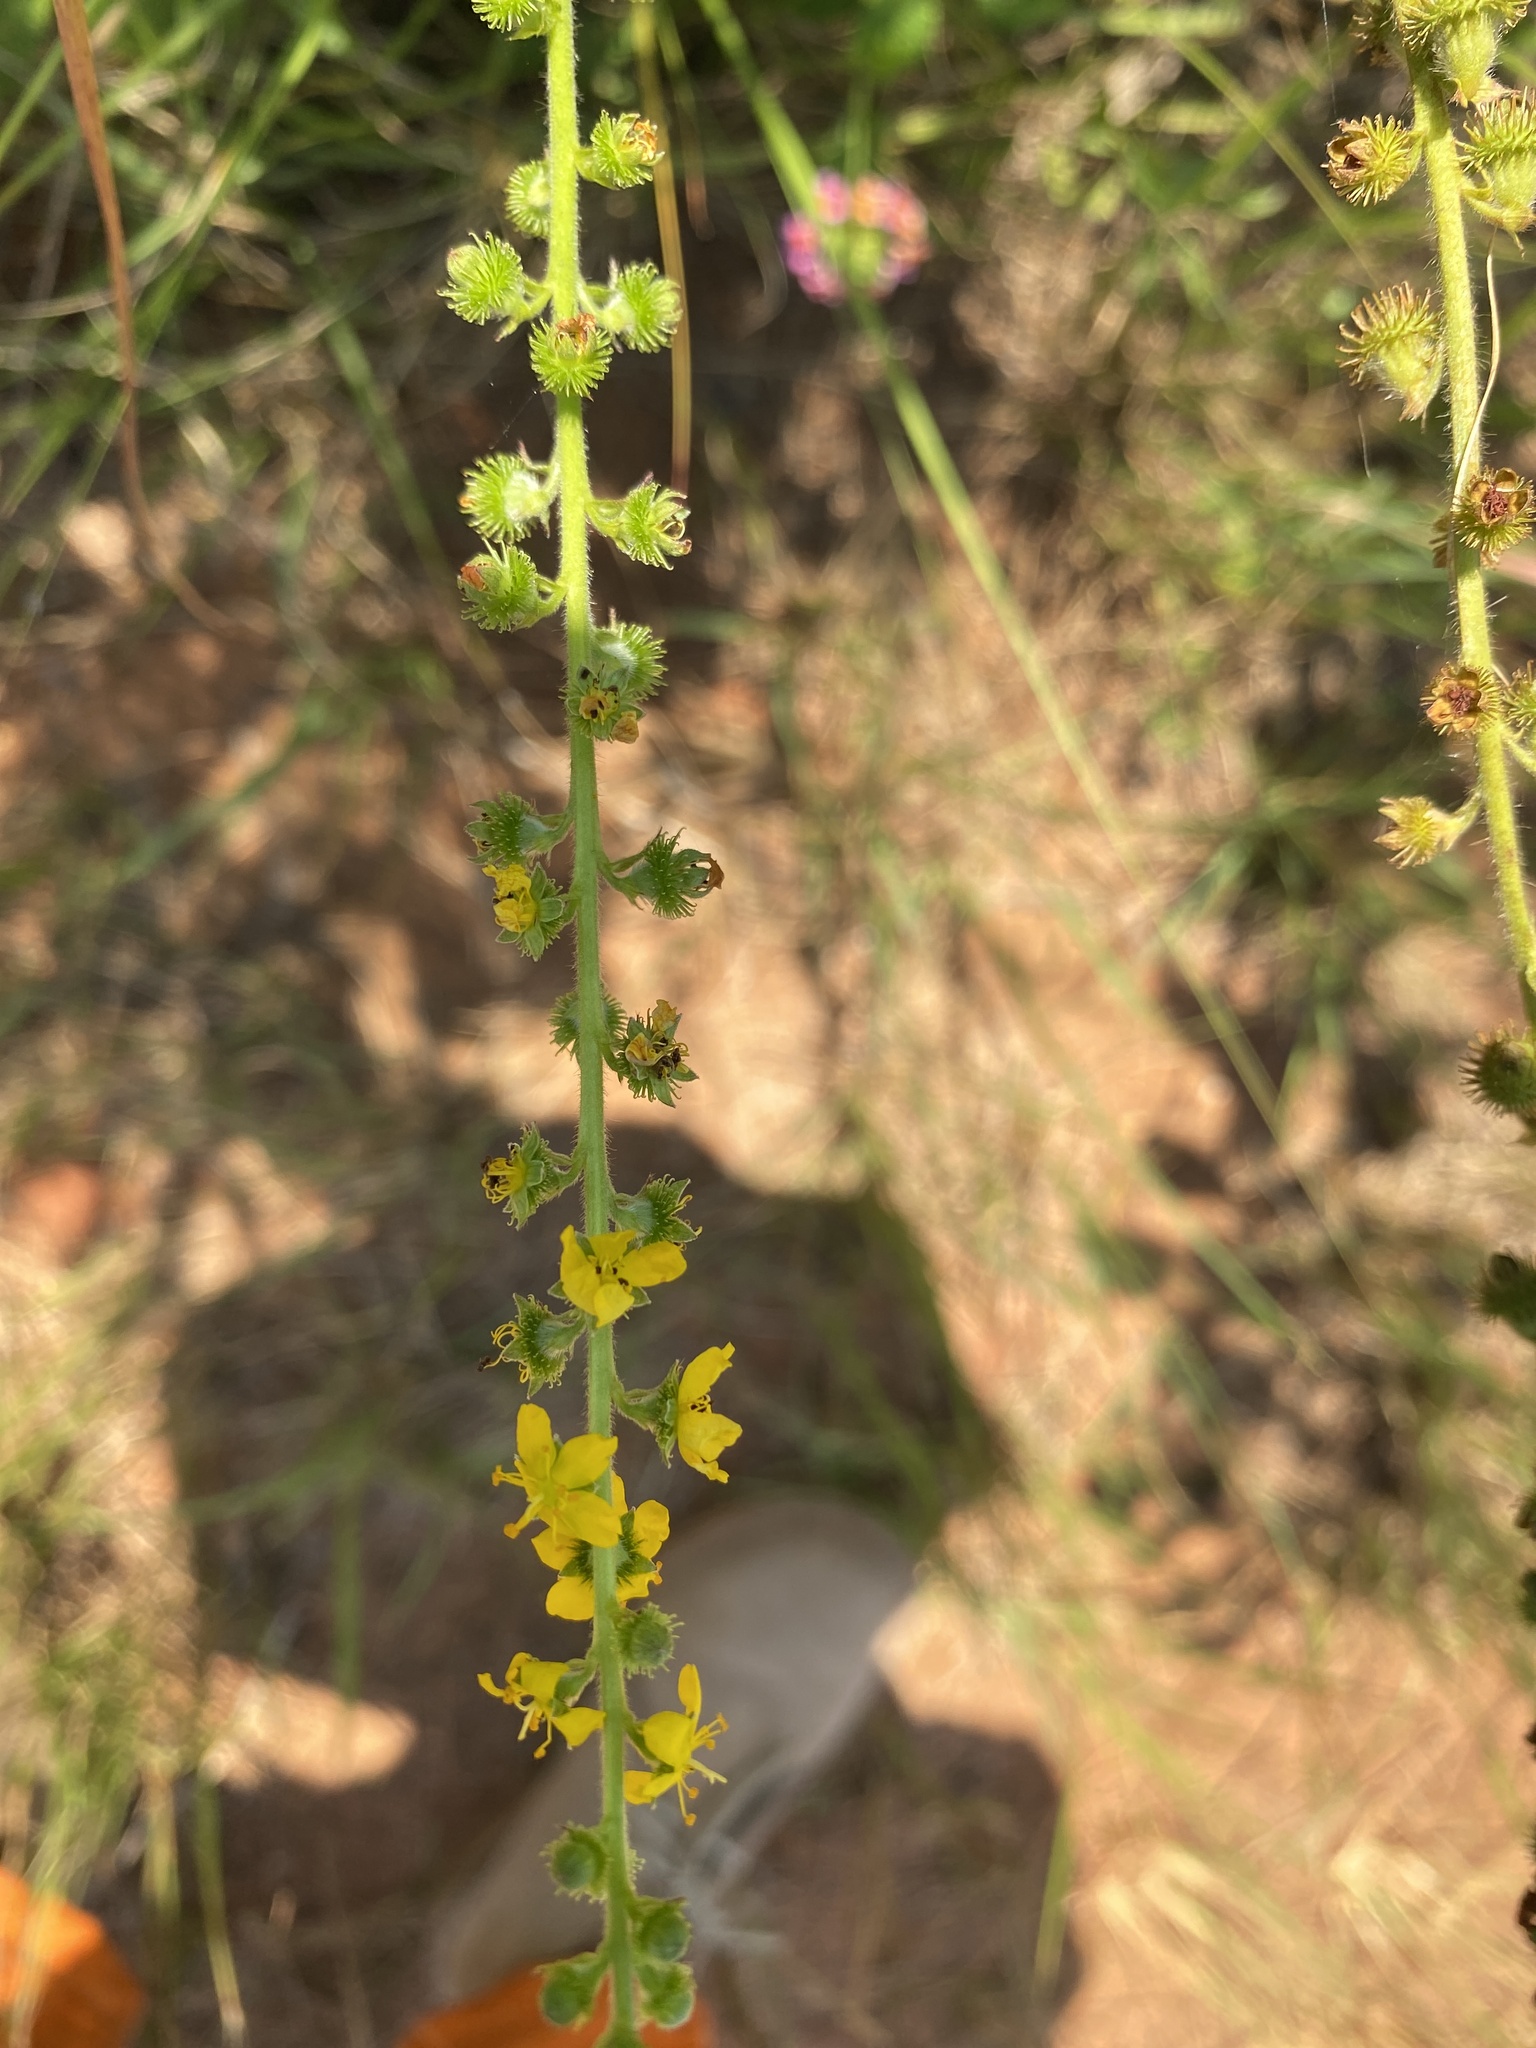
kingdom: Plantae
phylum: Tracheophyta
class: Magnoliopsida
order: Rosales
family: Rosaceae
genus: Agrimonia
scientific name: Agrimonia bracteata
